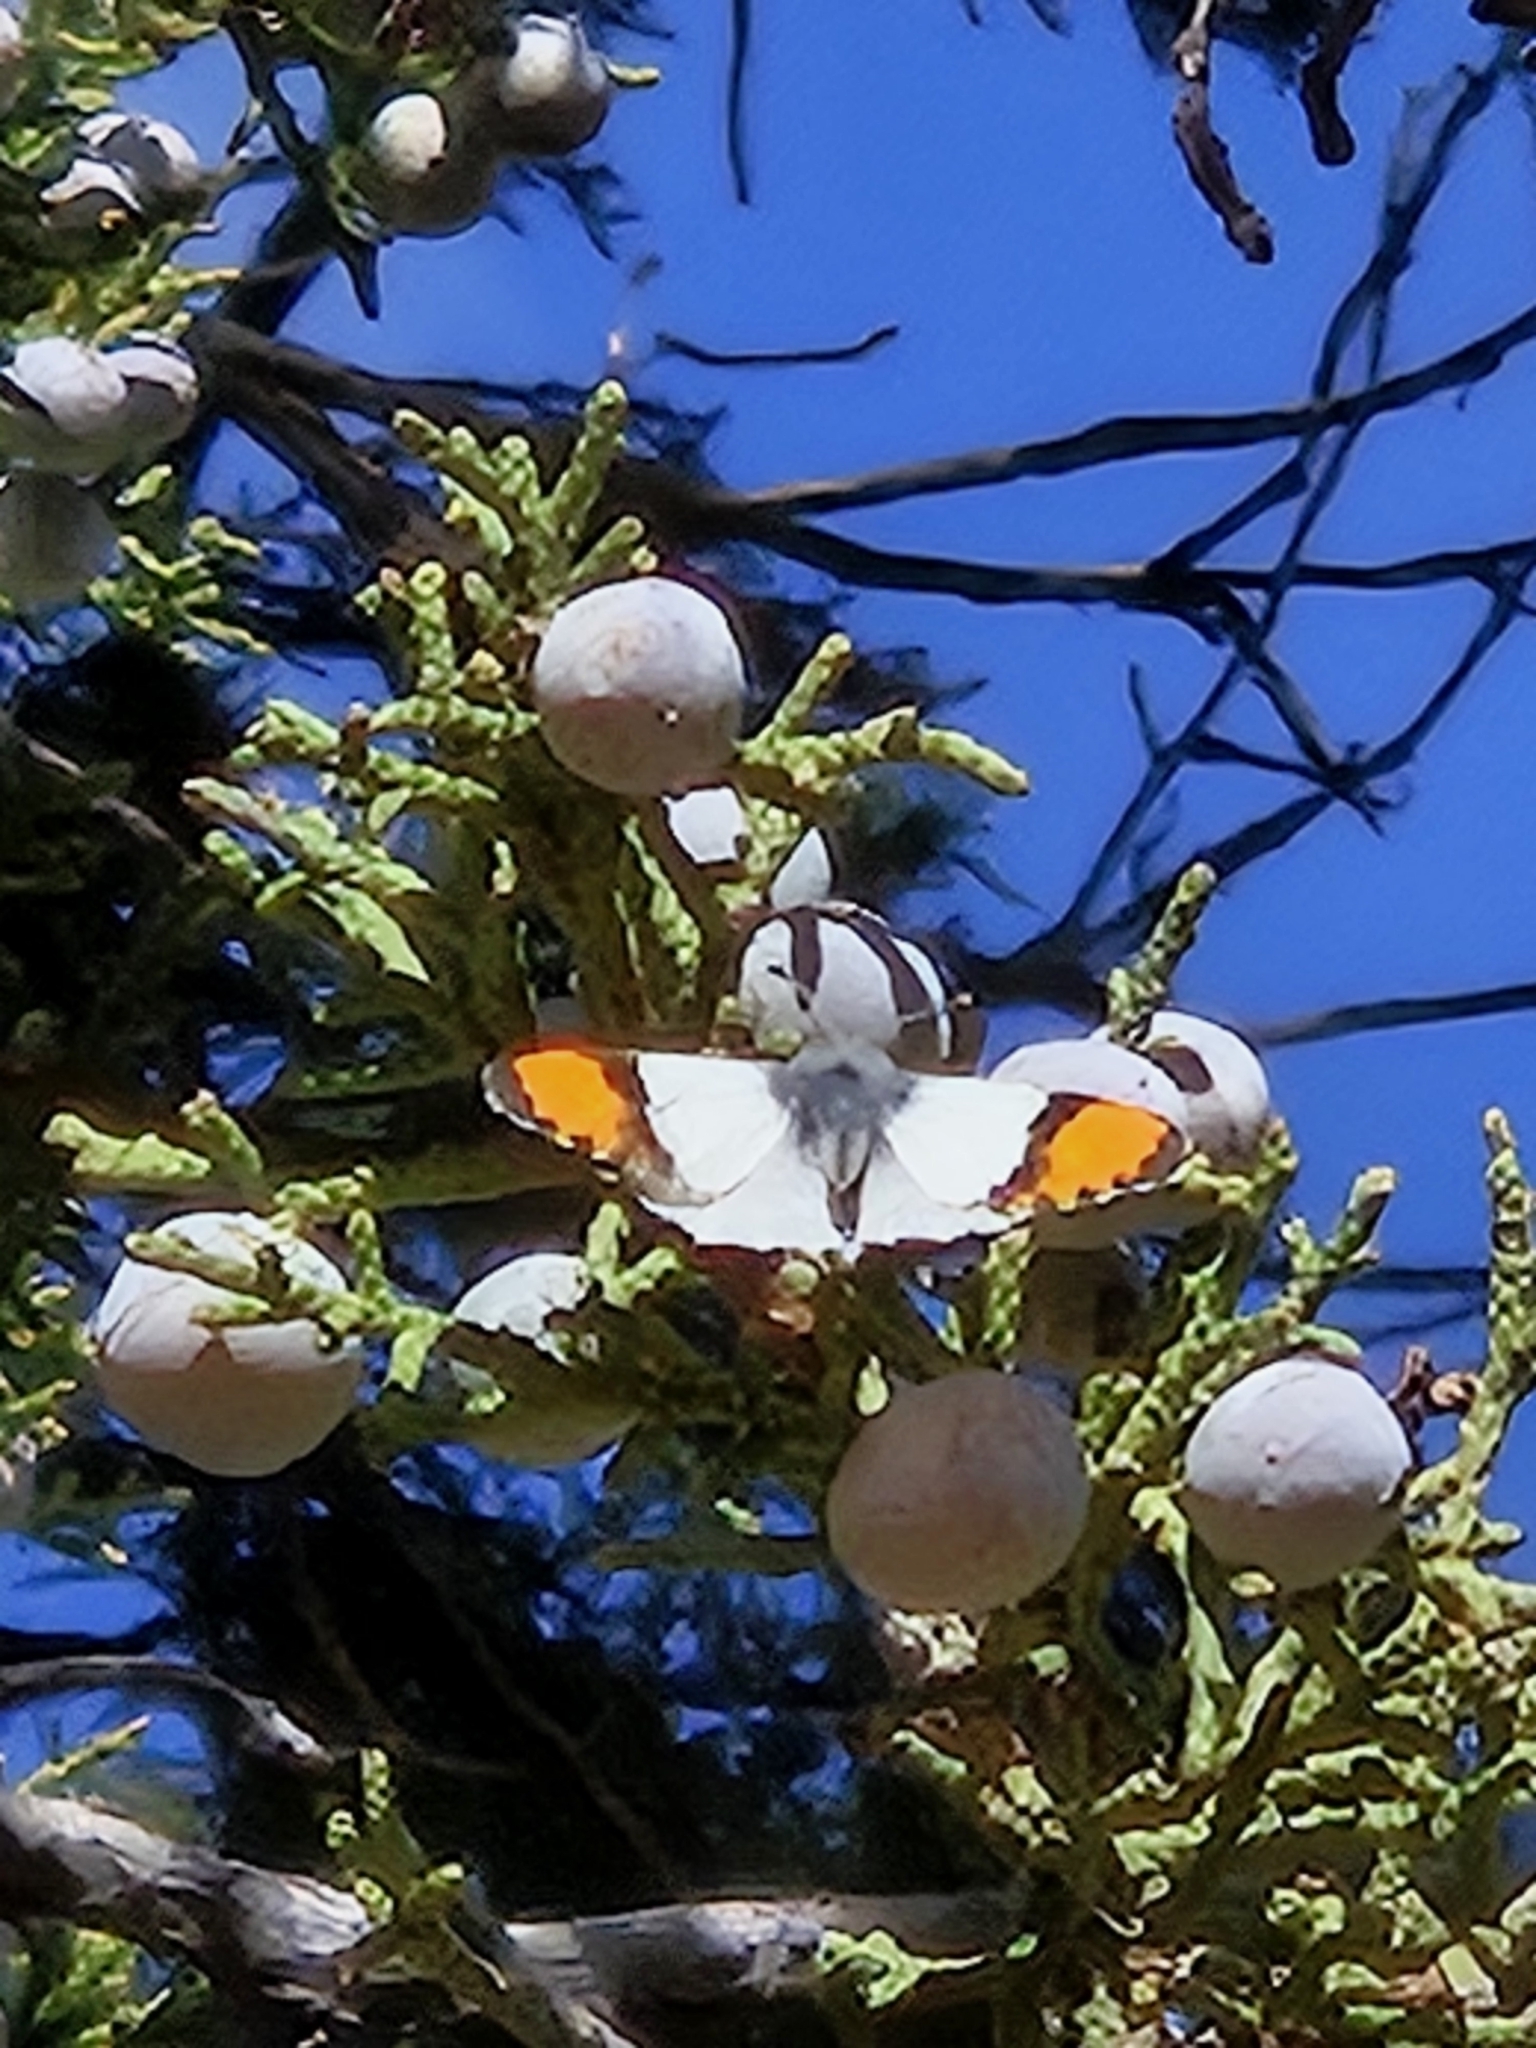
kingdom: Animalia
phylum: Arthropoda
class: Insecta
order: Lepidoptera
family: Pieridae
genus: Anthocharis
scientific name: Anthocharis thoosa
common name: Southwestern orangetip
